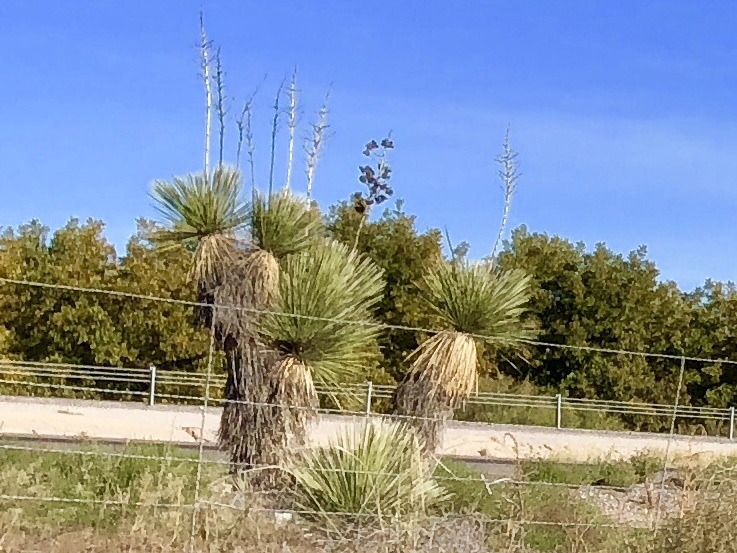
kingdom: Plantae
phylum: Tracheophyta
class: Liliopsida
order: Asparagales
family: Asparagaceae
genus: Yucca
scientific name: Yucca elata
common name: Palmella
